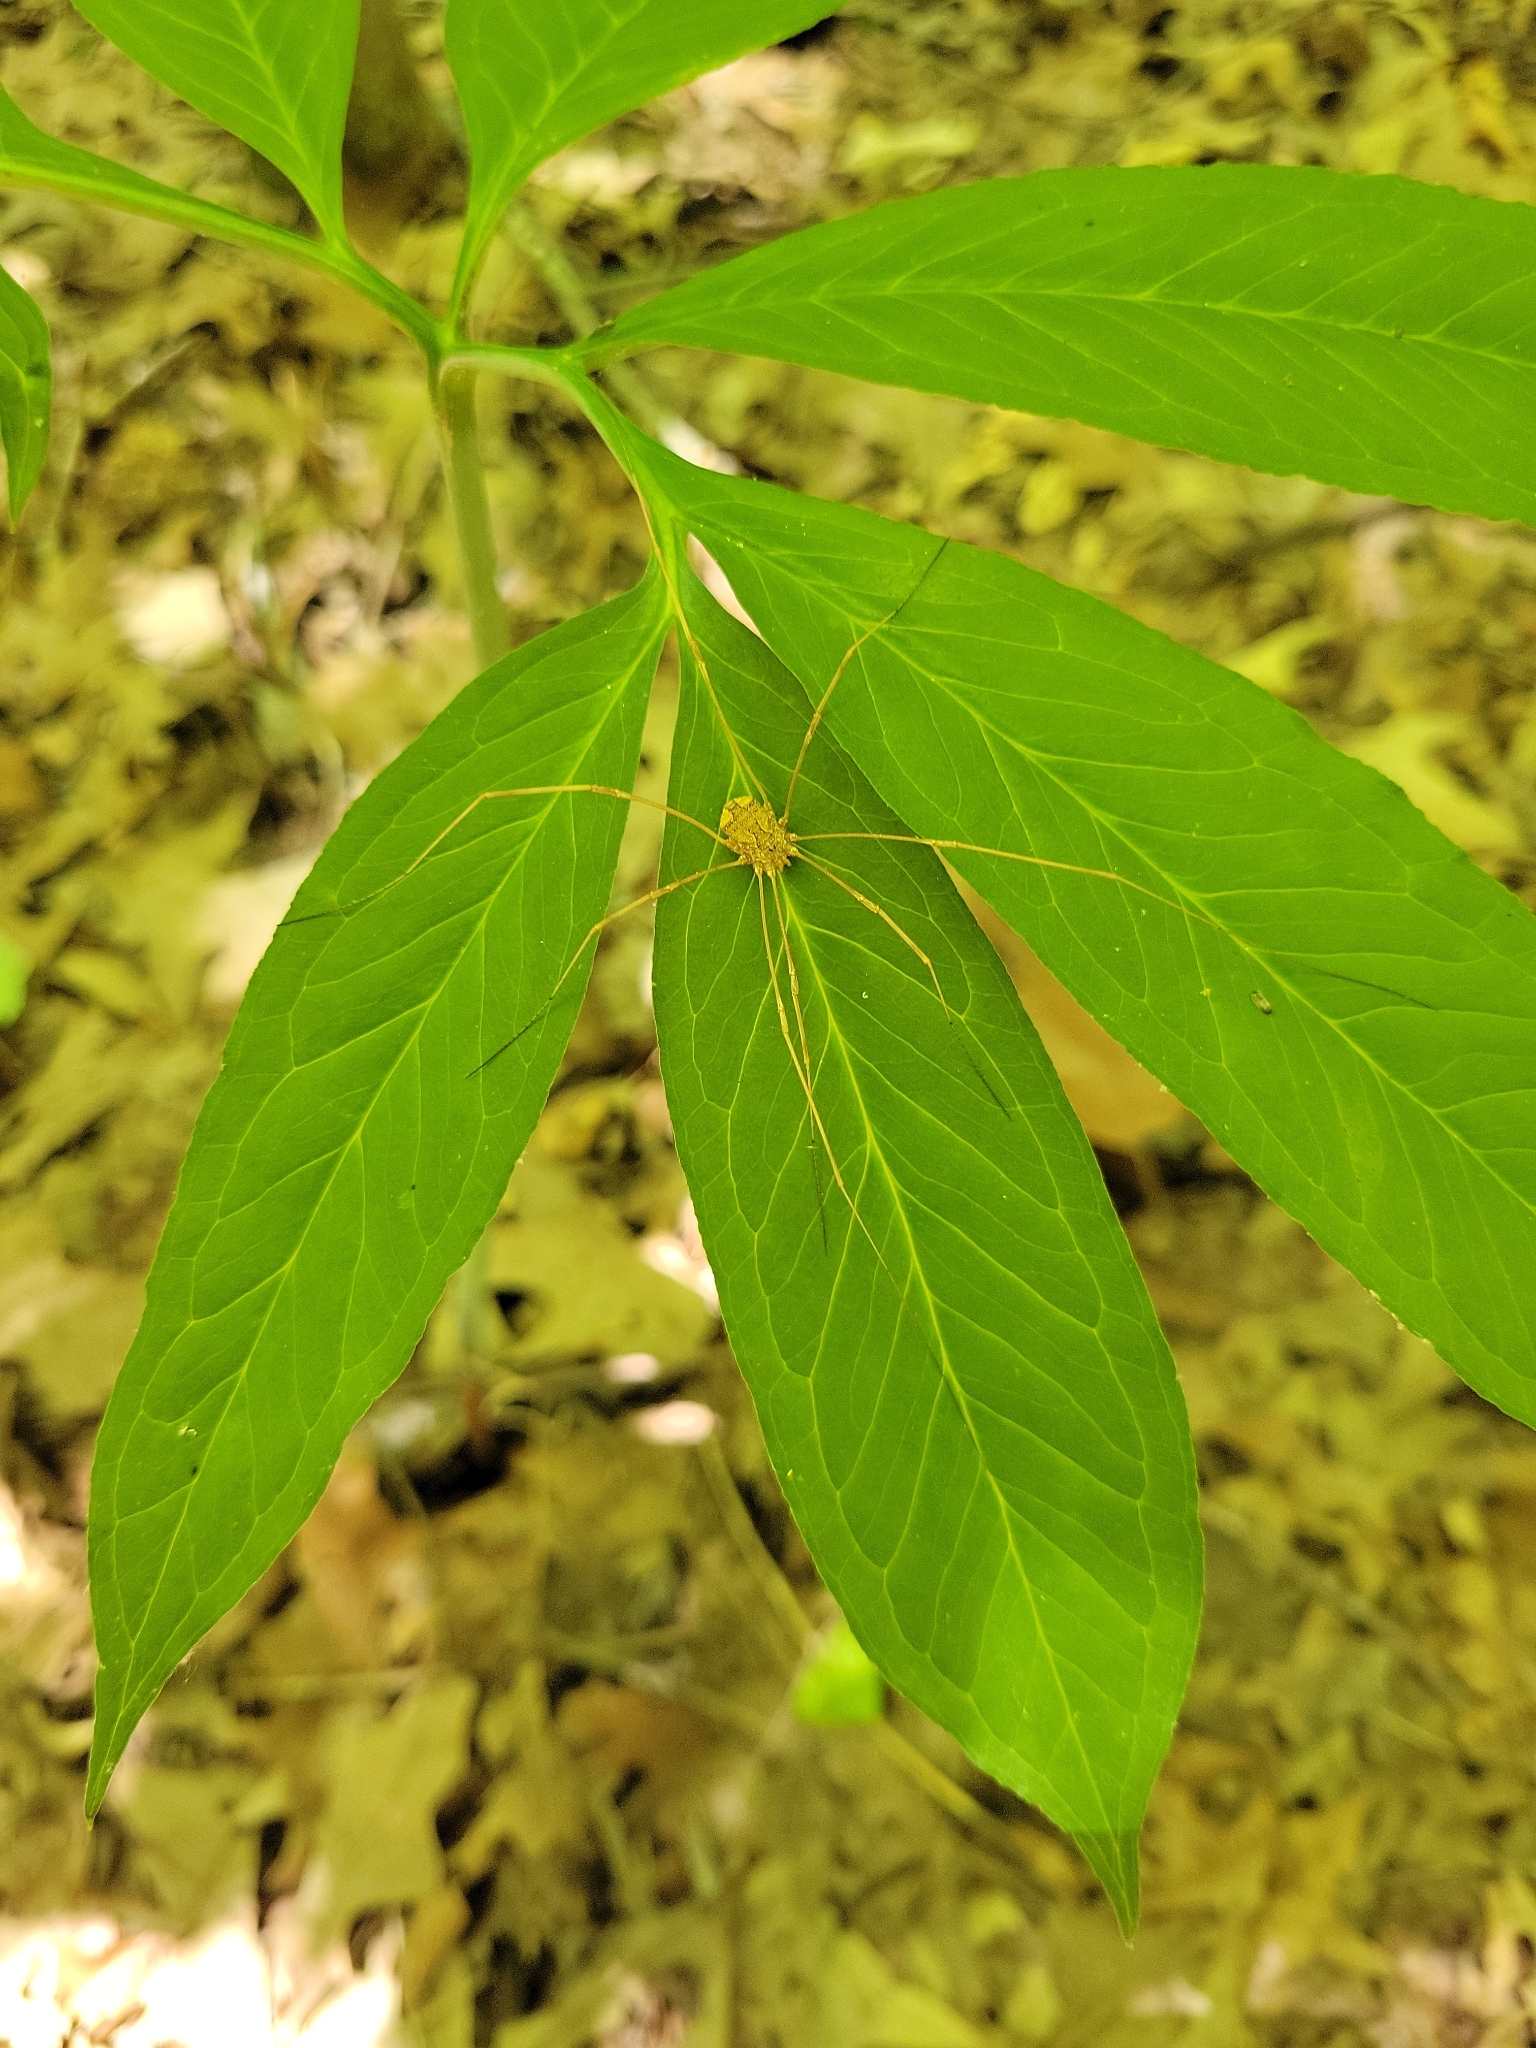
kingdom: Animalia
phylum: Arthropoda
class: Arachnida
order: Opiliones
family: Sclerosomatidae
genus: Leiobunum
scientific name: Leiobunum flavum
